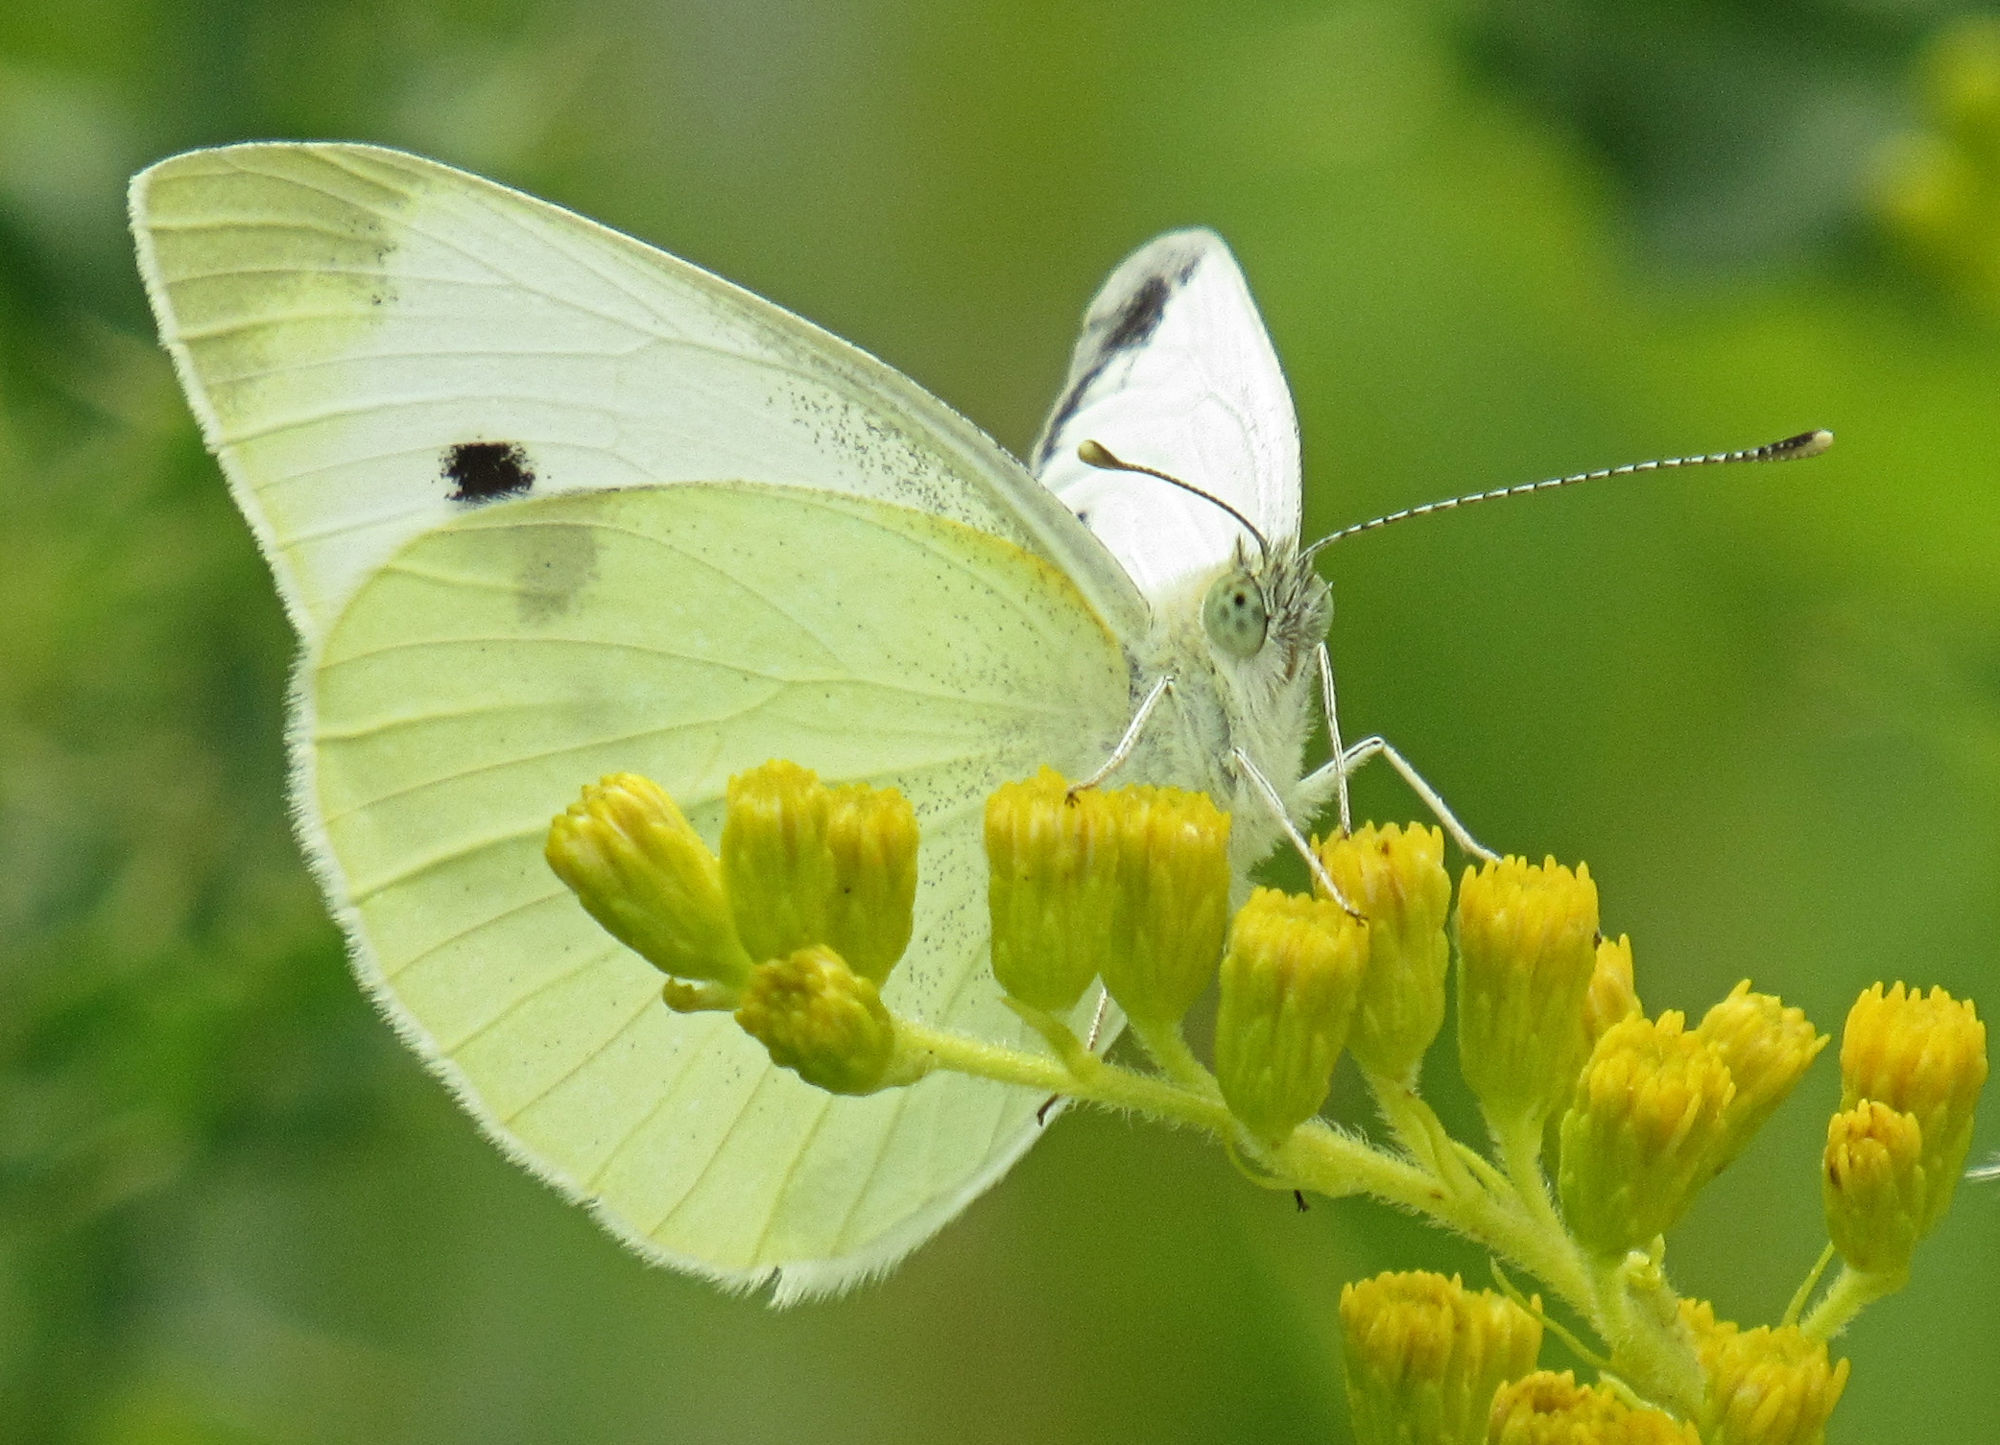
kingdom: Animalia
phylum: Arthropoda
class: Insecta
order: Lepidoptera
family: Pieridae
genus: Pieris
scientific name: Pieris rapae
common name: Small white
